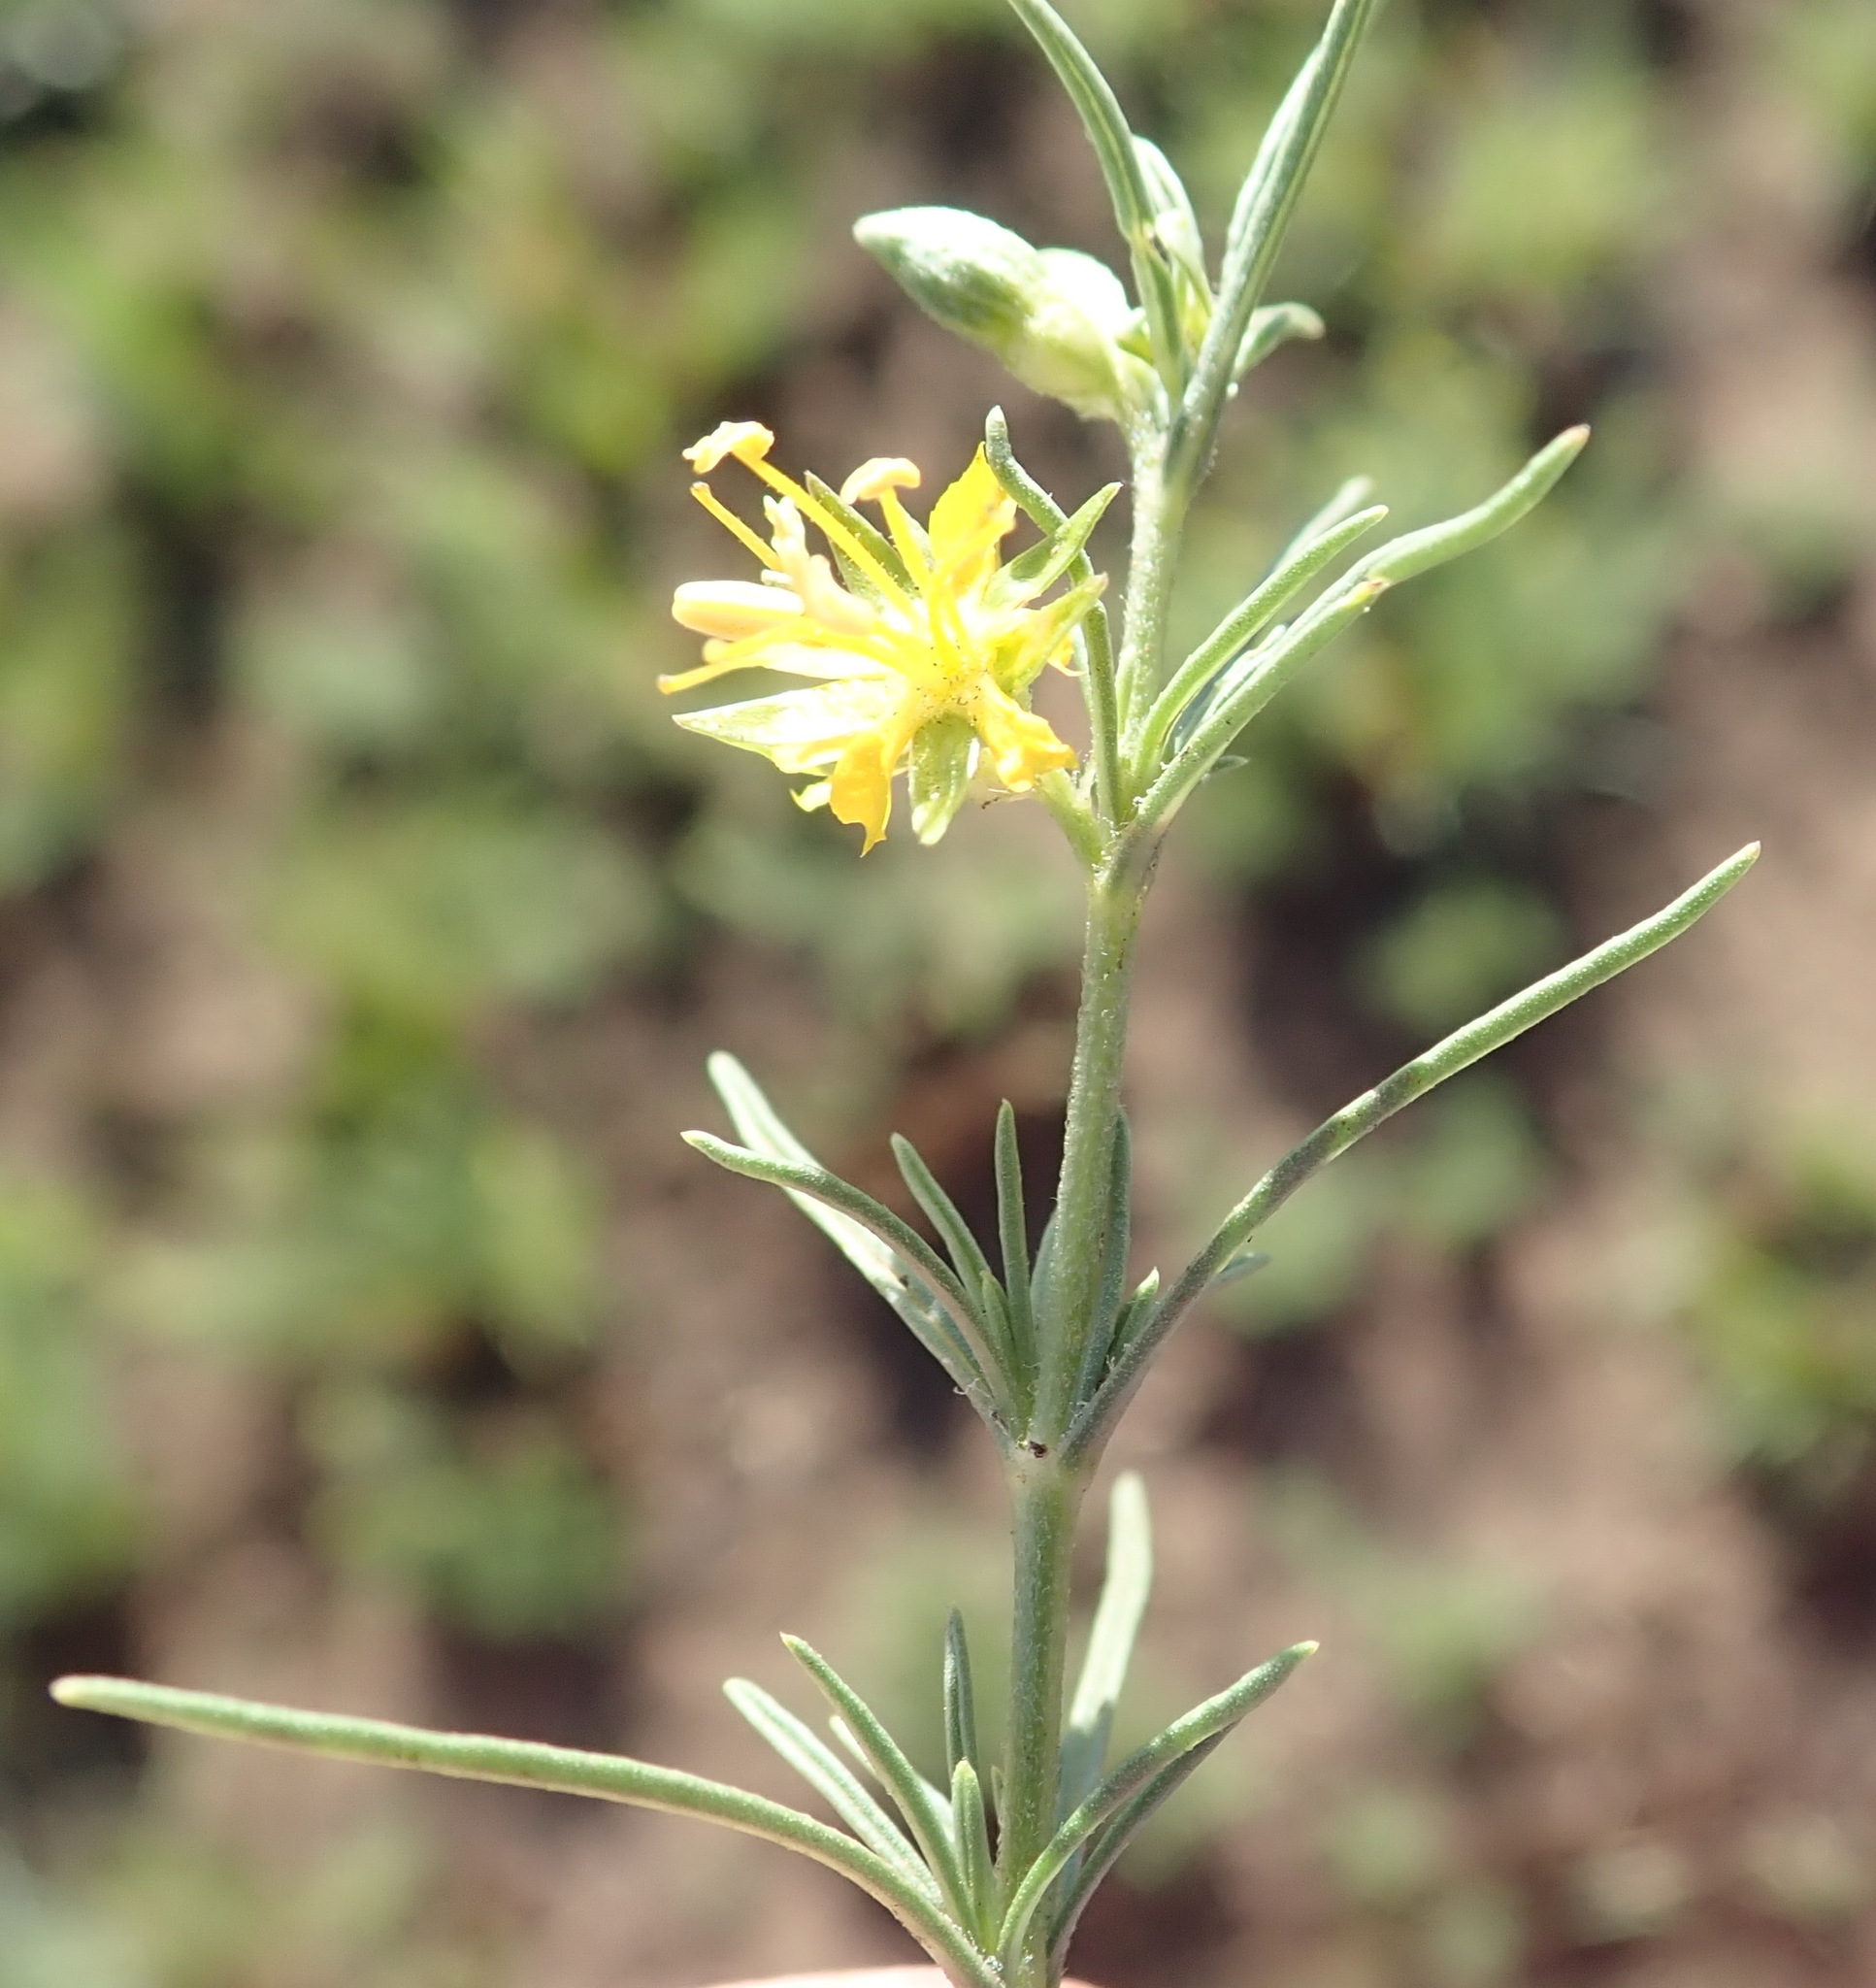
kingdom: Plantae
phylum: Tracheophyta
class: Magnoliopsida
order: Vahliales
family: Vahliaceae
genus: Vahlia
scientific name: Vahlia capensis
